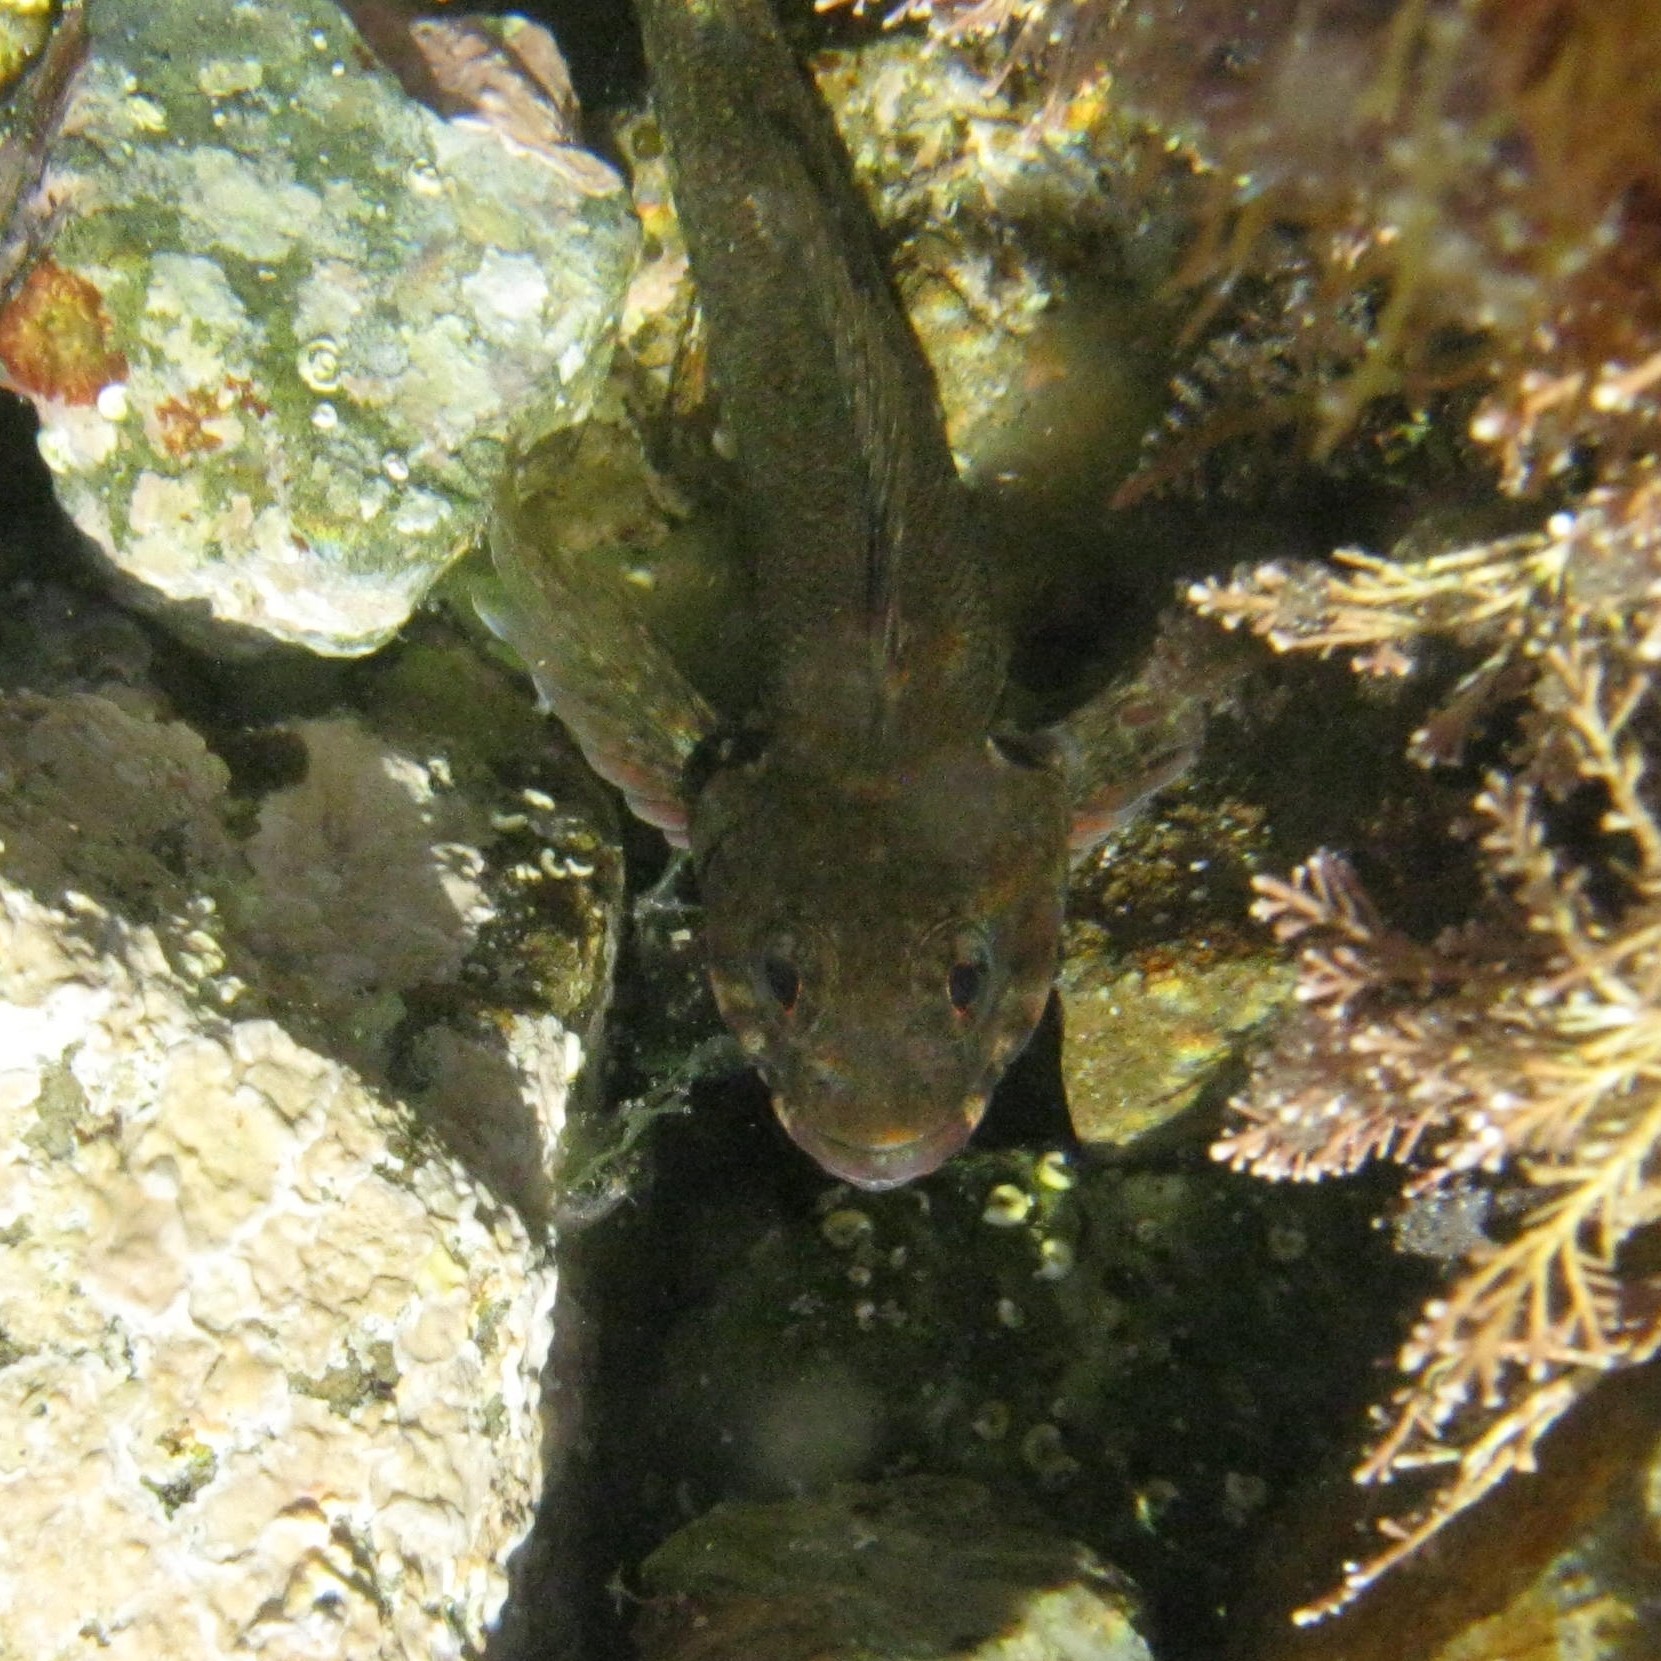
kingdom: Animalia
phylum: Chordata
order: Perciformes
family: Tripterygiidae
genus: Bellapiscis
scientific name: Bellapiscis medius
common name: Twister
